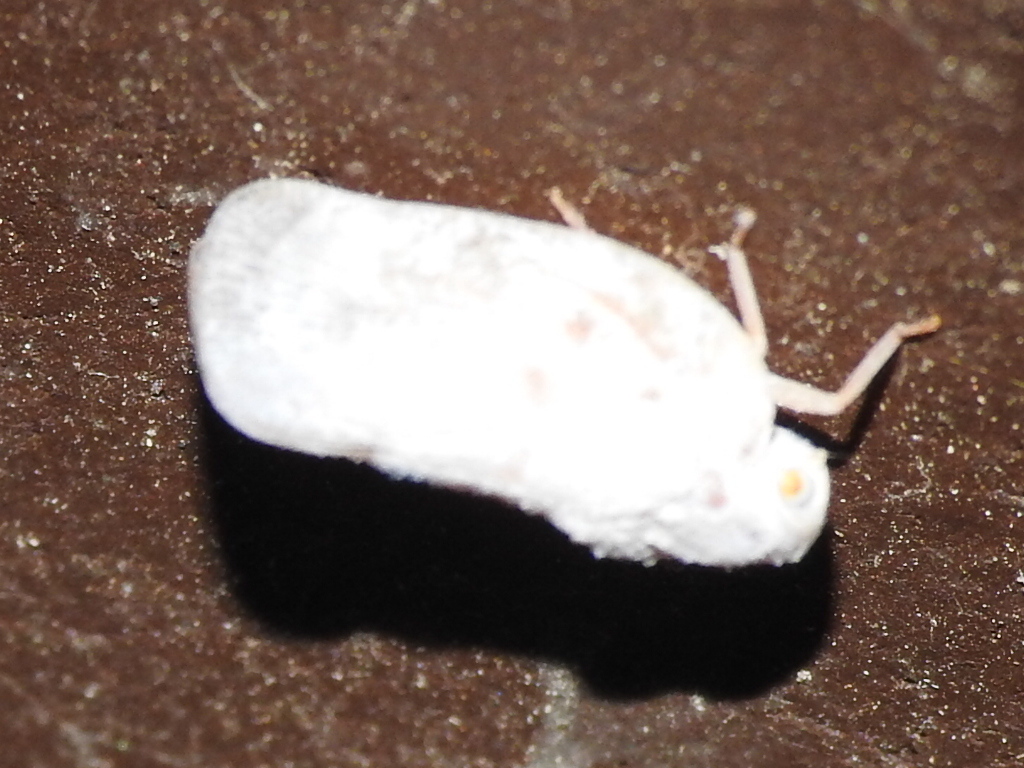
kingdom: Animalia
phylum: Arthropoda
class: Insecta
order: Hemiptera
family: Flatidae
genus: Metcalfa
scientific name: Metcalfa pruinosa
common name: Citrus flatid planthopper
